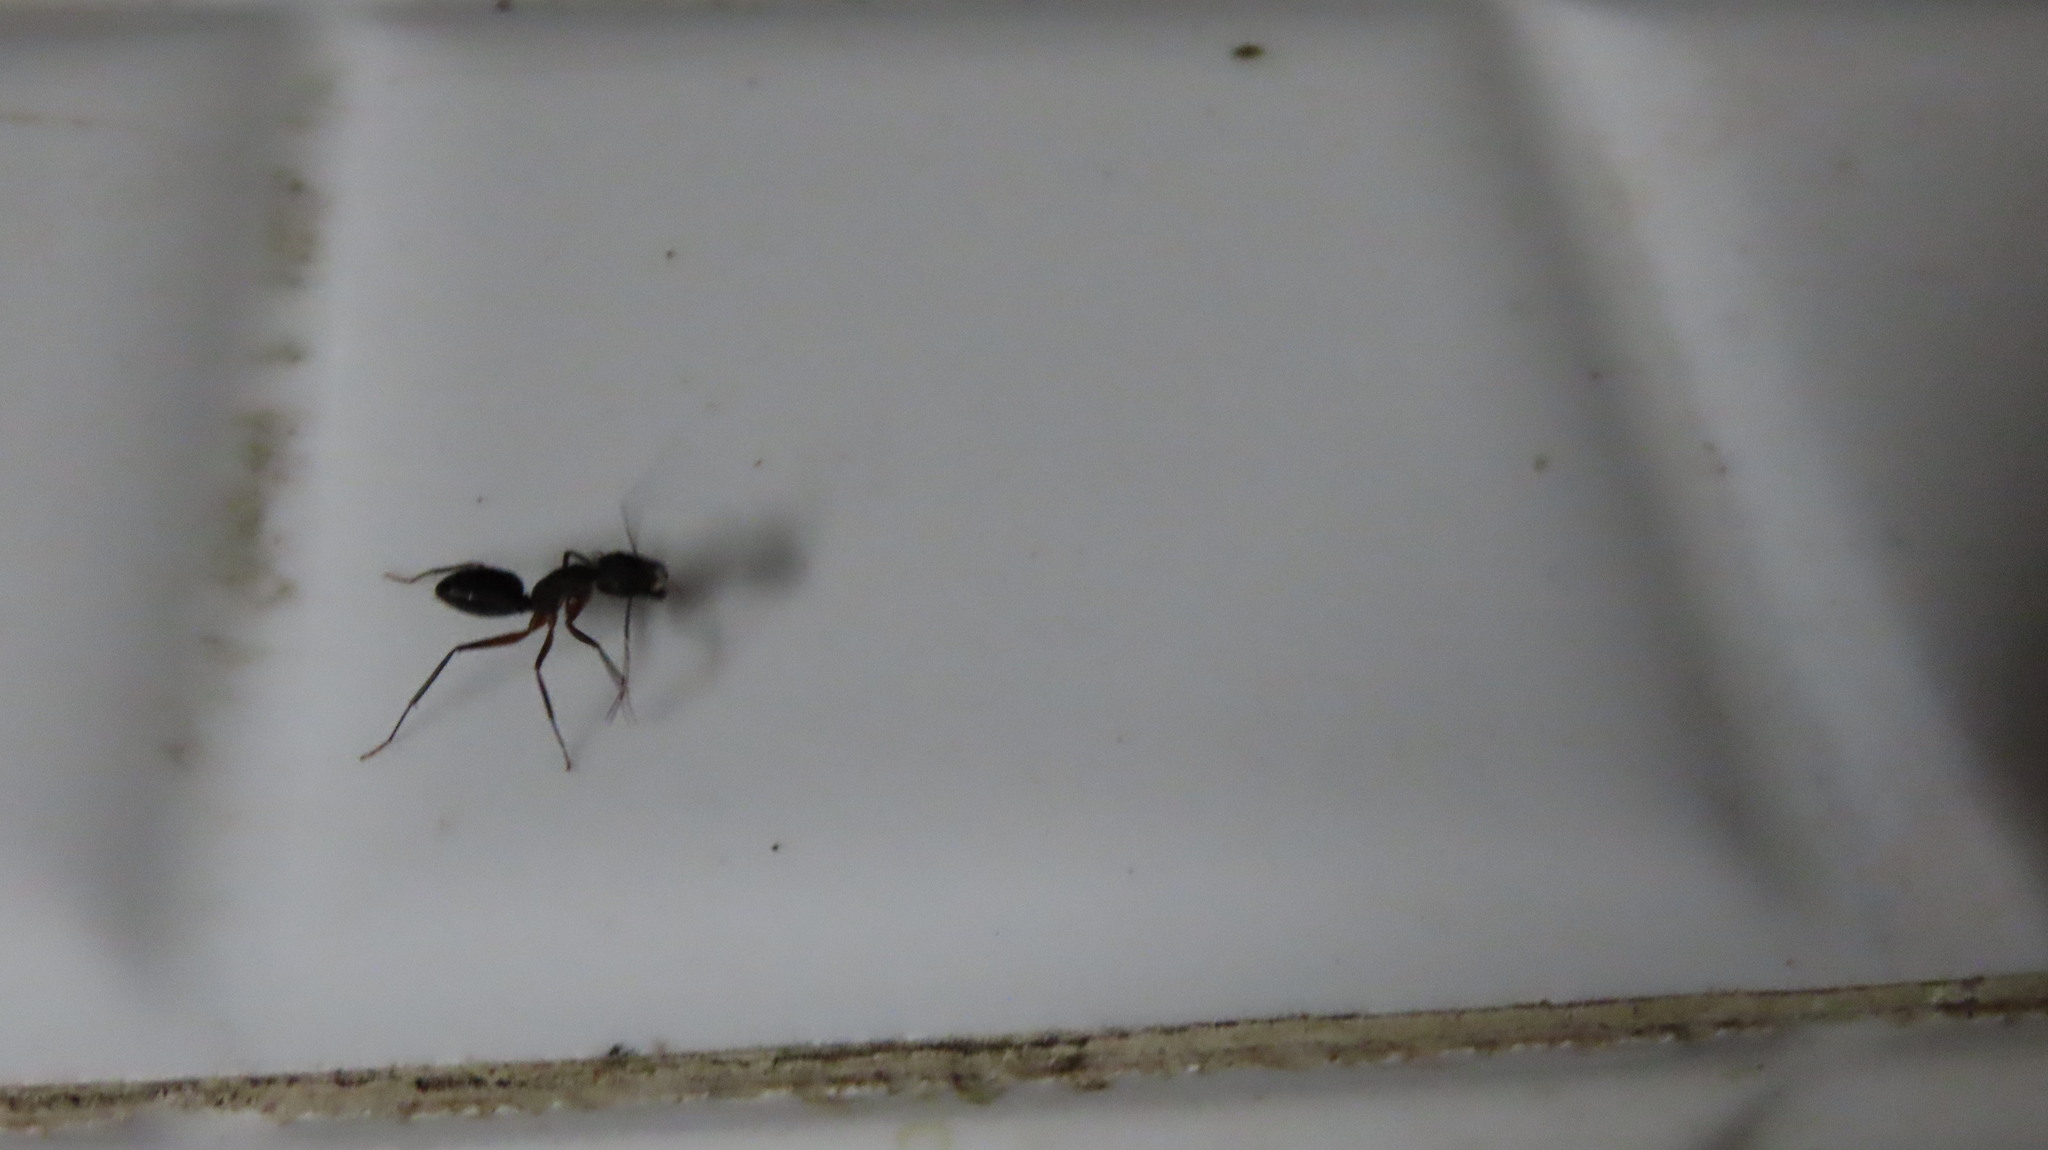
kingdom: Animalia
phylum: Arthropoda
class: Insecta
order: Hymenoptera
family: Formicidae
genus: Camponotus
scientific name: Camponotus compressus
